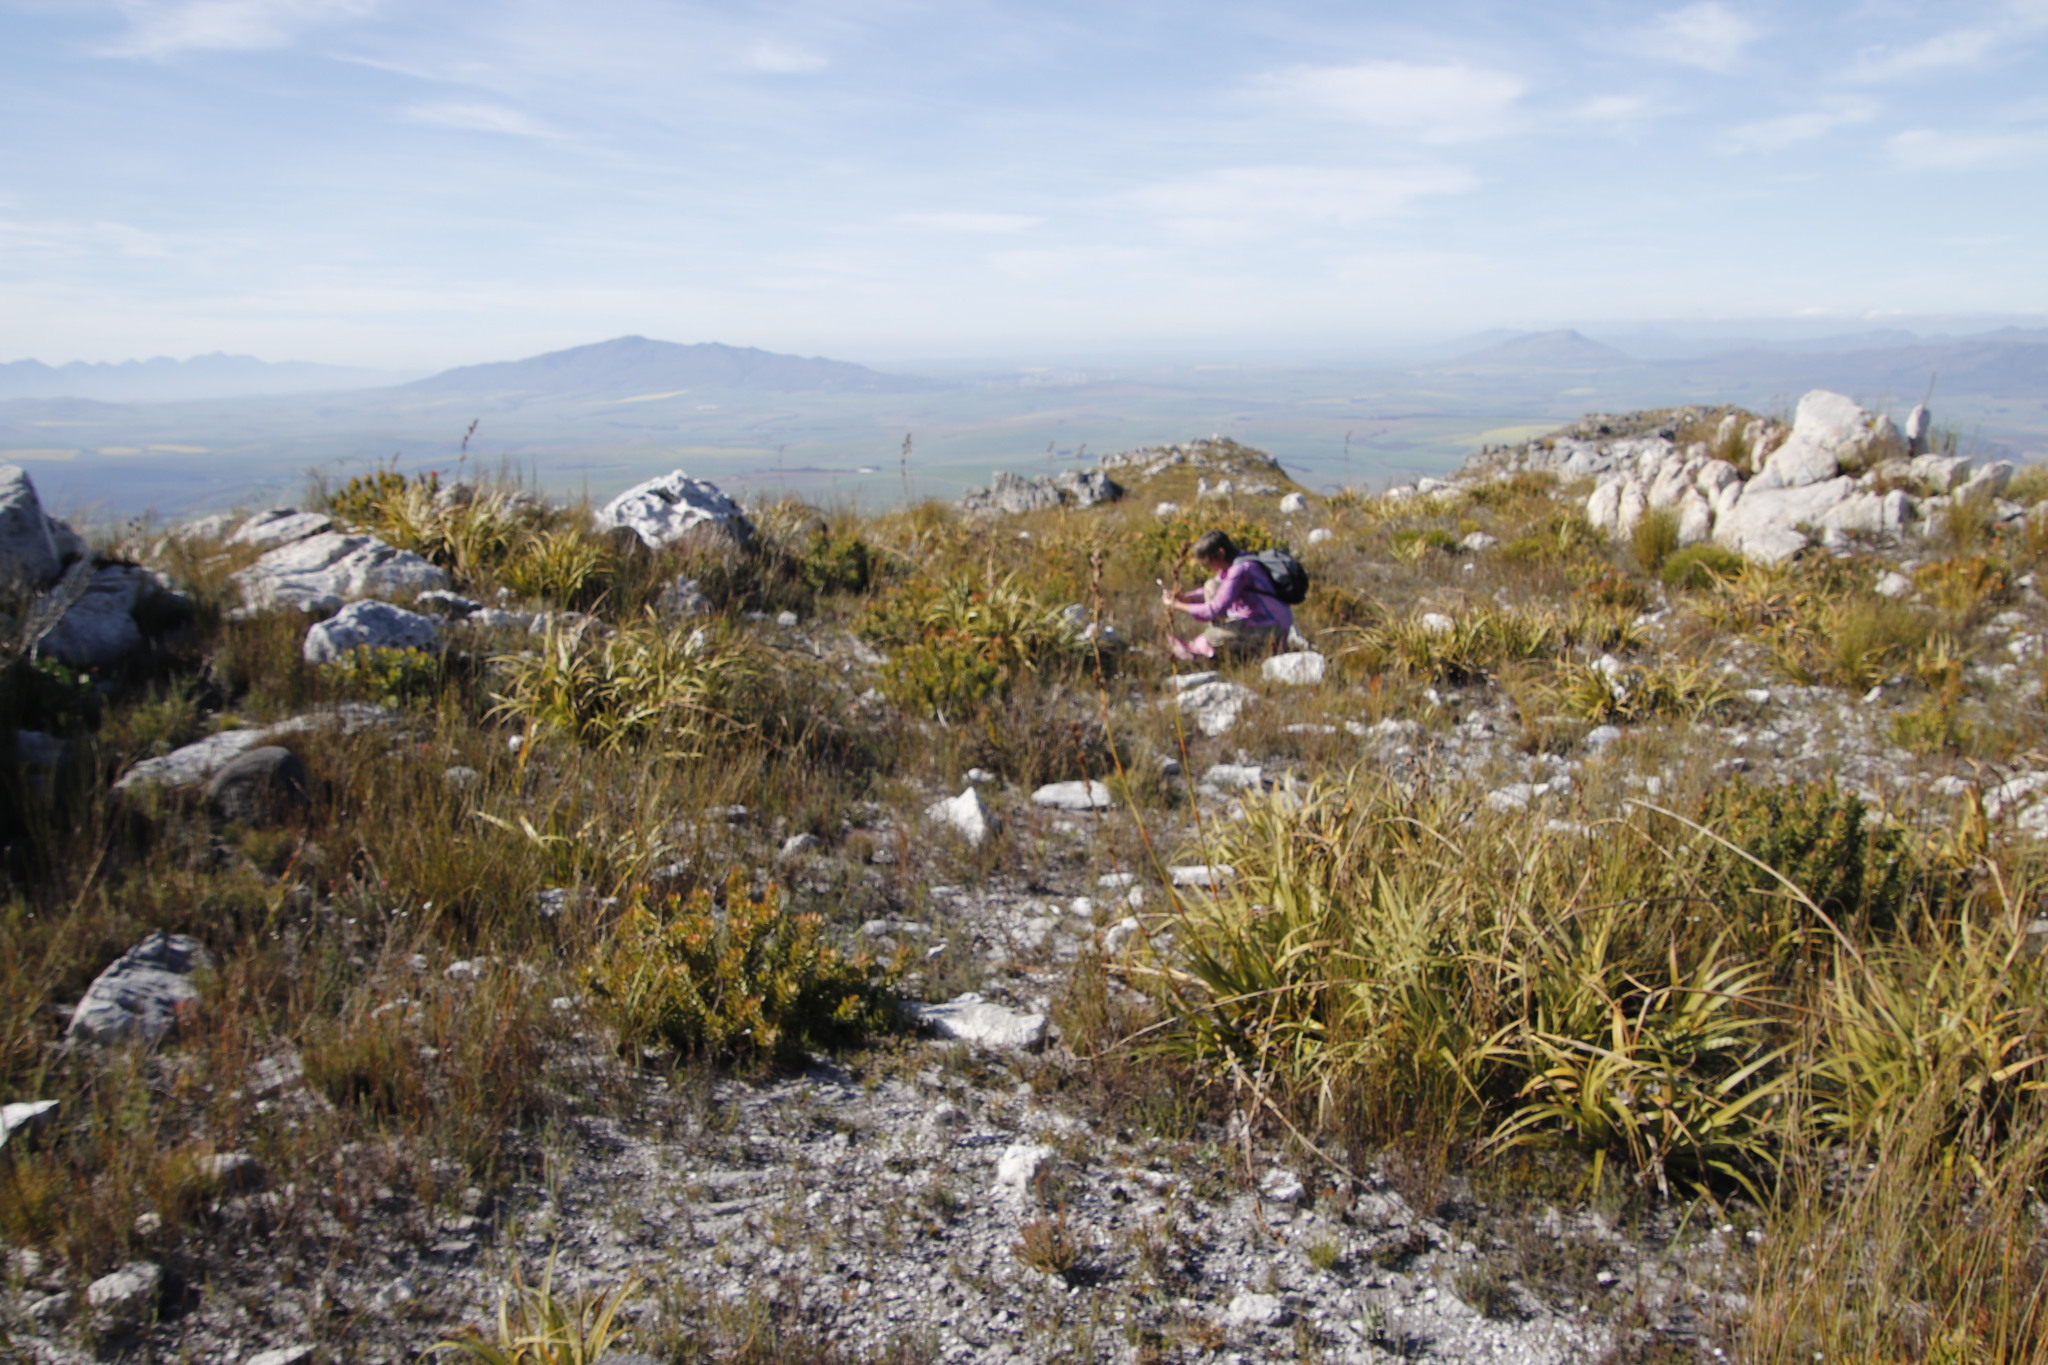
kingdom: Plantae
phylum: Tracheophyta
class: Liliopsida
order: Poales
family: Cyperaceae
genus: Tetraria
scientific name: Tetraria thermalis
